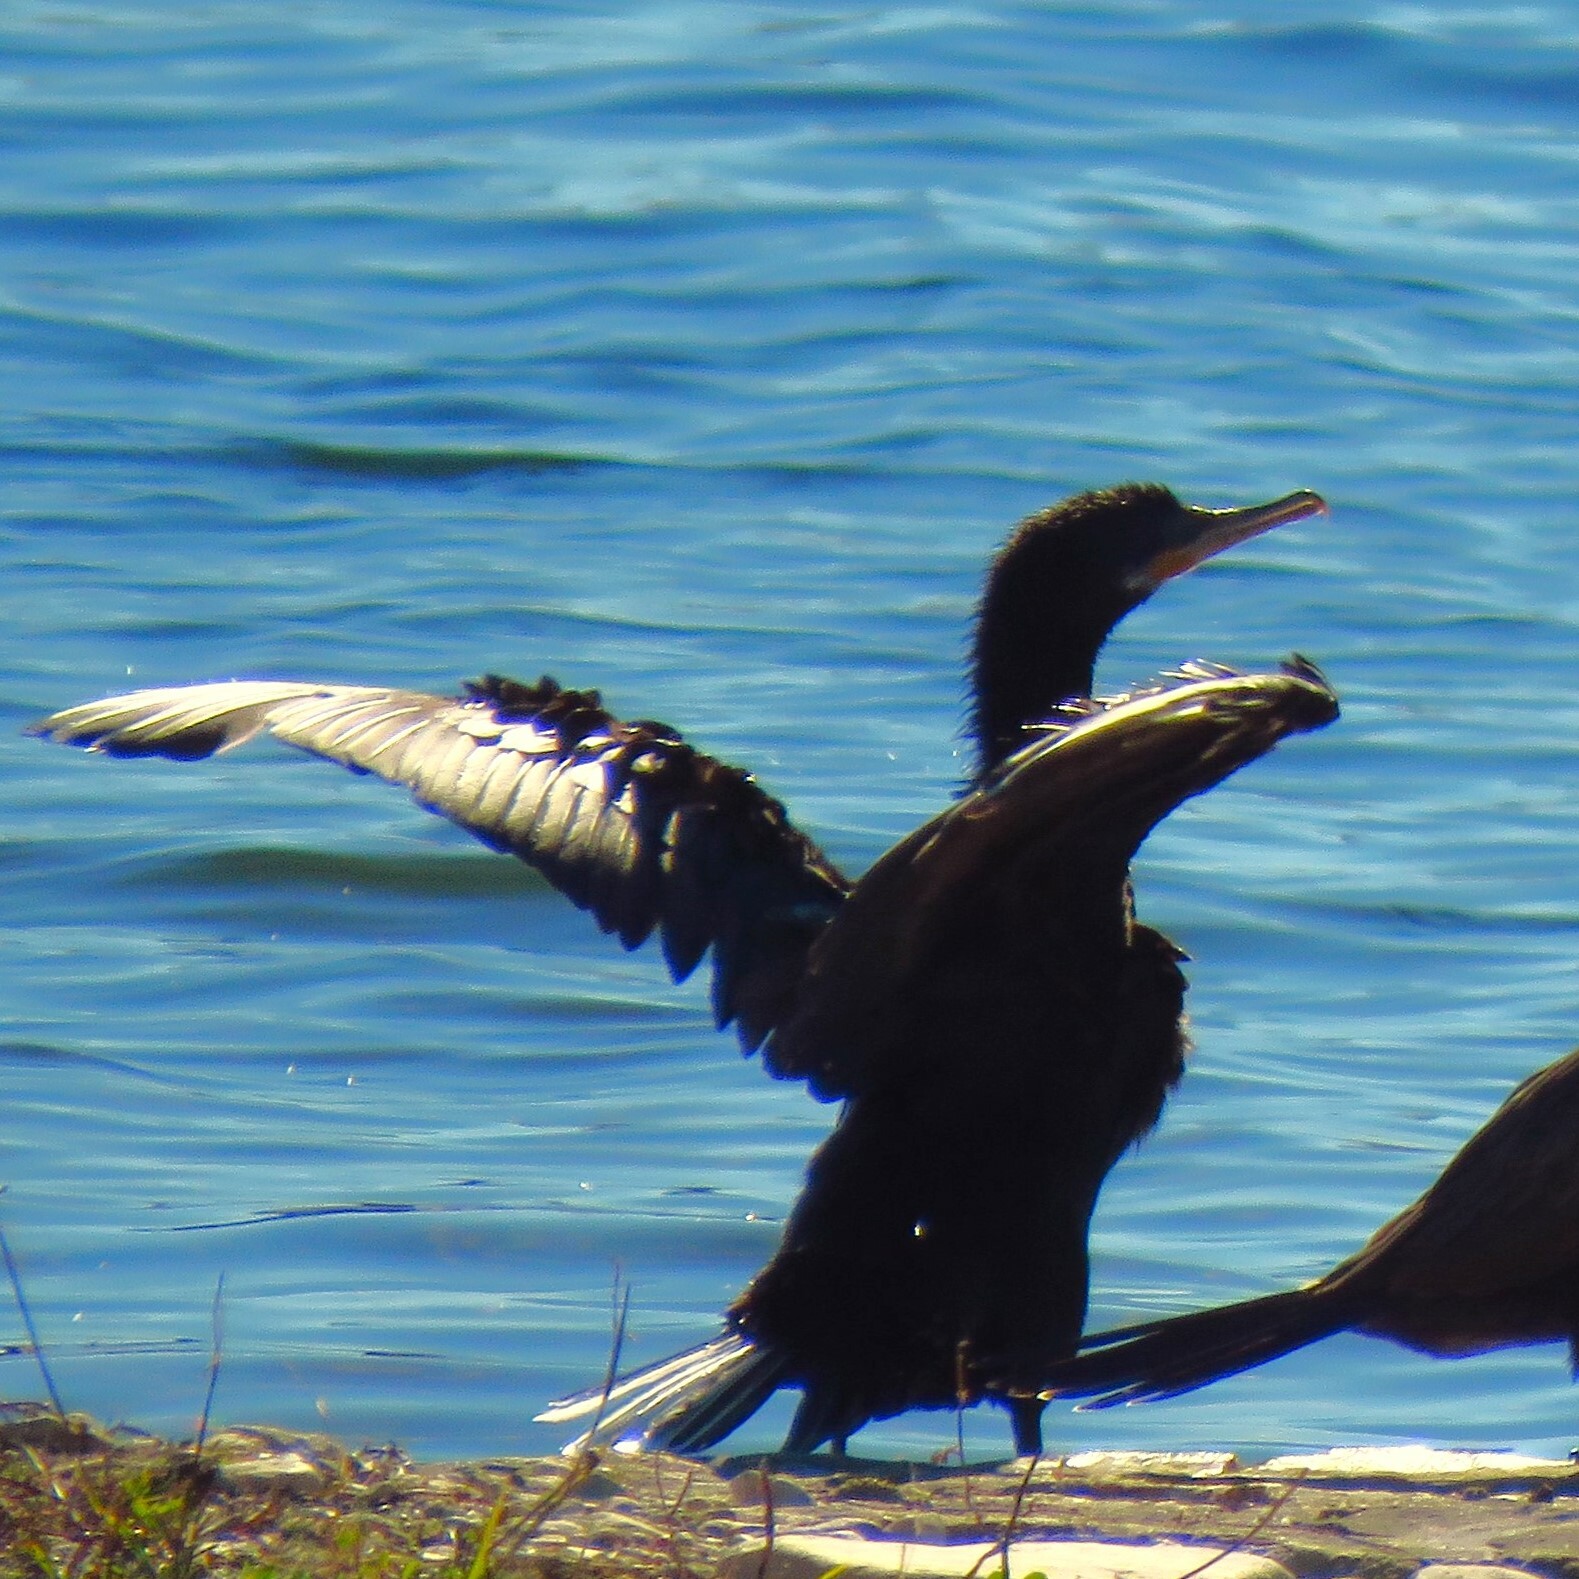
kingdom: Animalia
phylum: Chordata
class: Aves
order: Suliformes
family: Phalacrocoracidae
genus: Phalacrocorax
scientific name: Phalacrocorax brasilianus
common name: Neotropic cormorant
